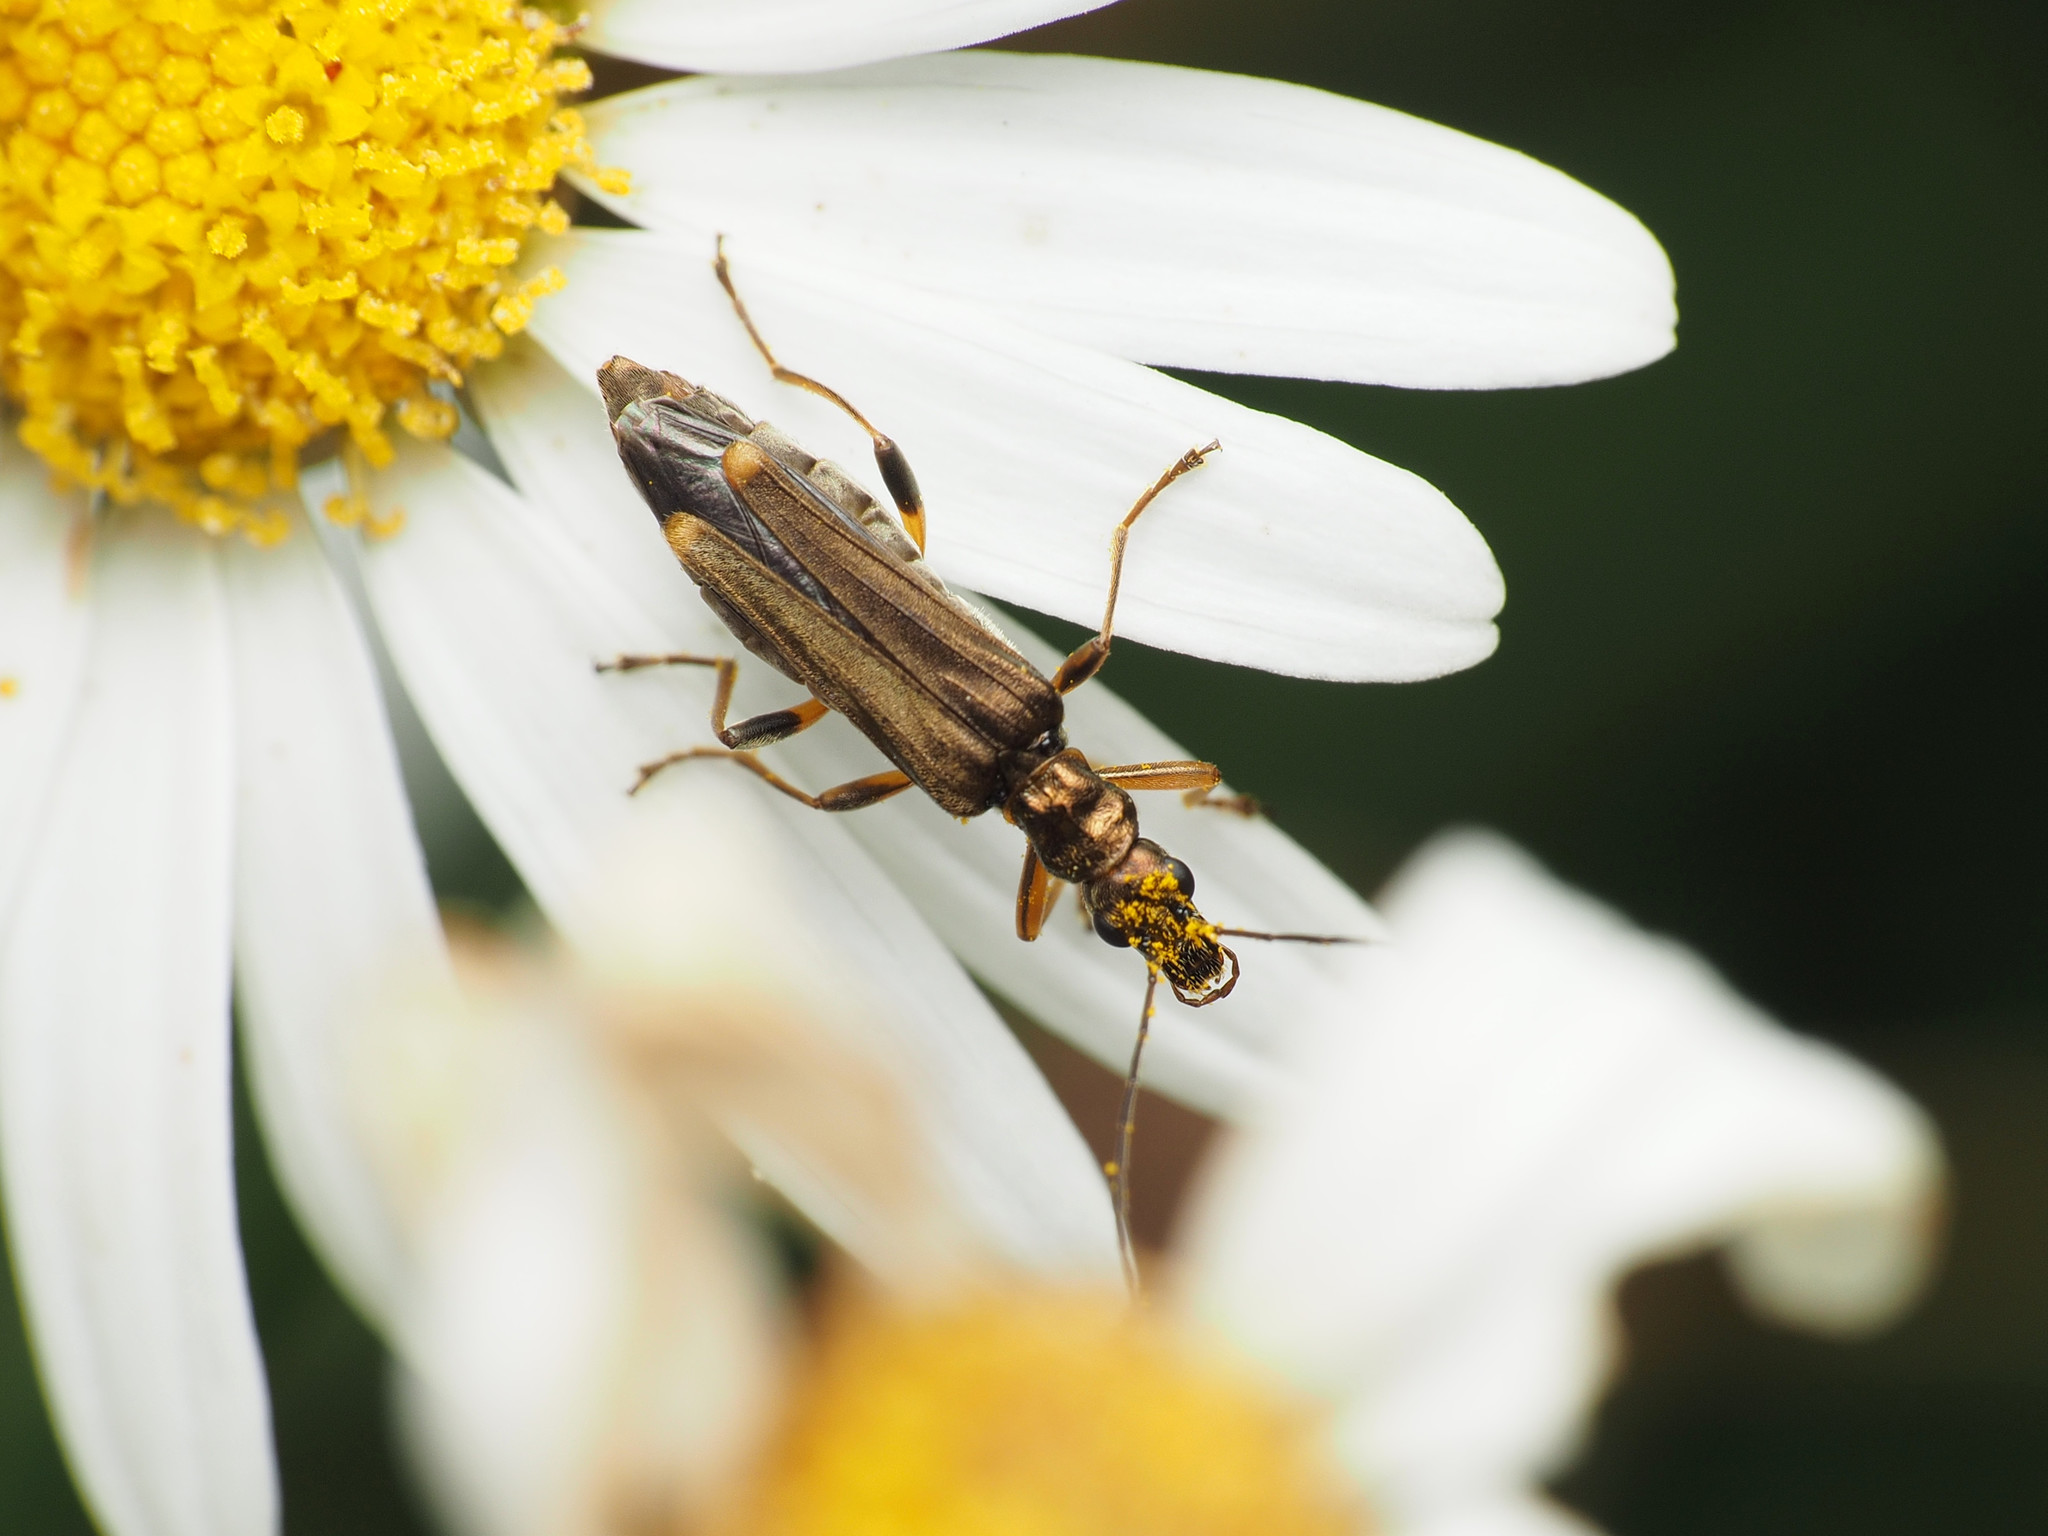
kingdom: Animalia
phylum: Arthropoda
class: Insecta
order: Coleoptera
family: Oedemeridae
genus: Oedemera
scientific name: Oedemera barbara
